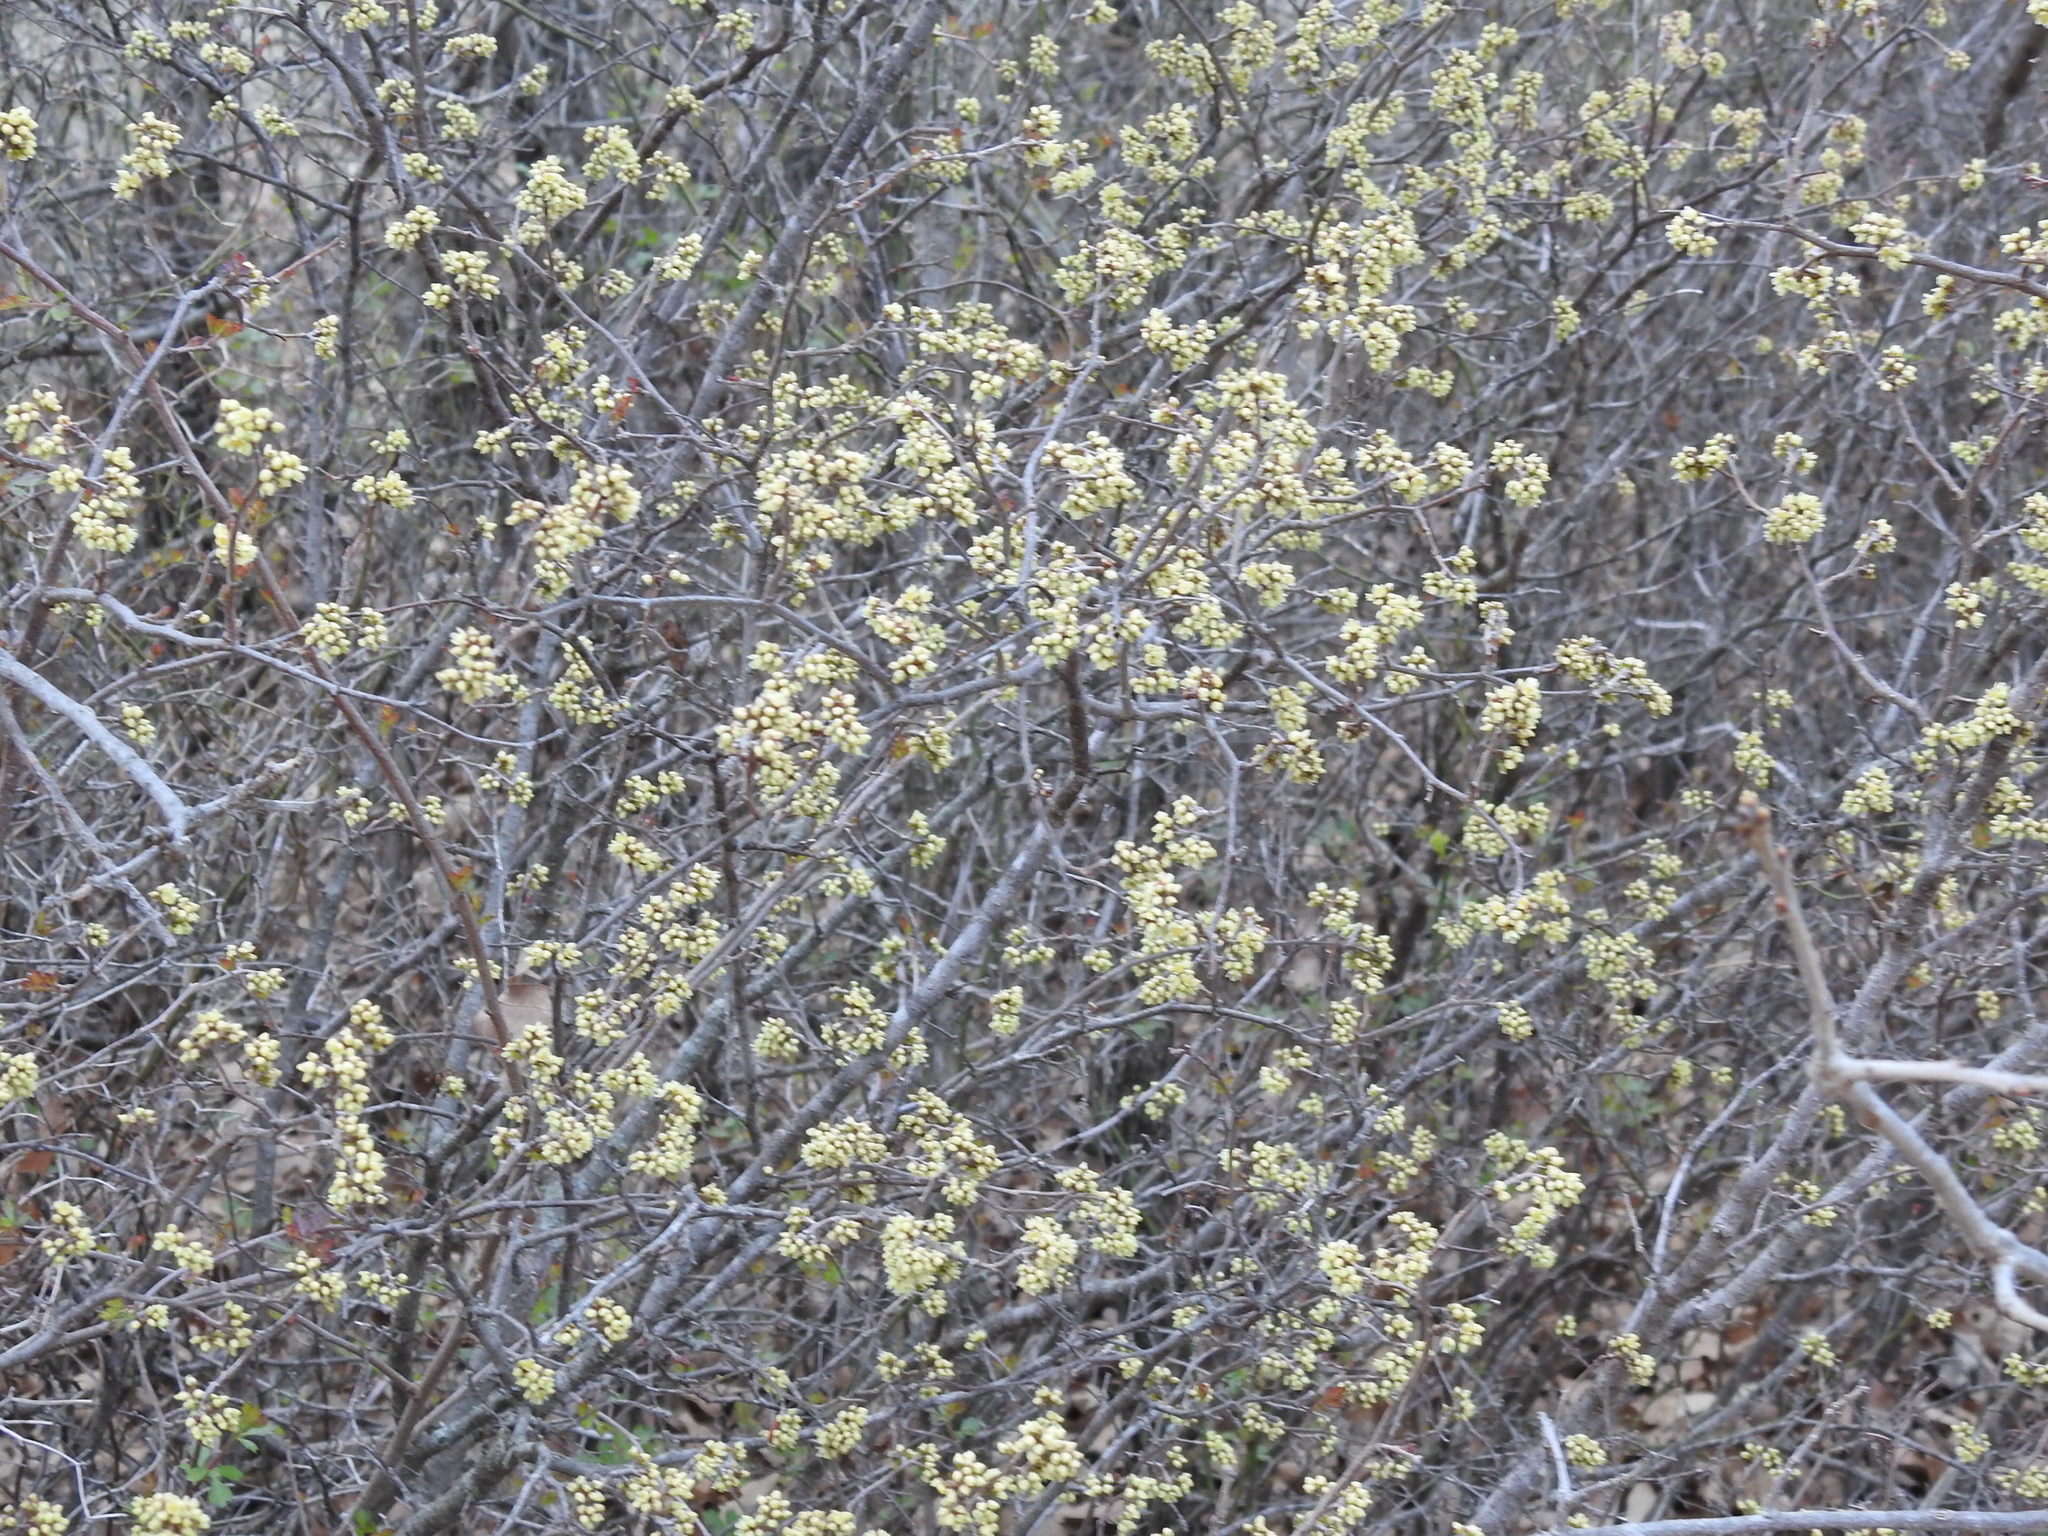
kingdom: Plantae
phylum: Tracheophyta
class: Magnoliopsida
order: Sapindales
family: Anacardiaceae
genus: Rhus
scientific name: Rhus aromatica
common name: Aromatic sumac
